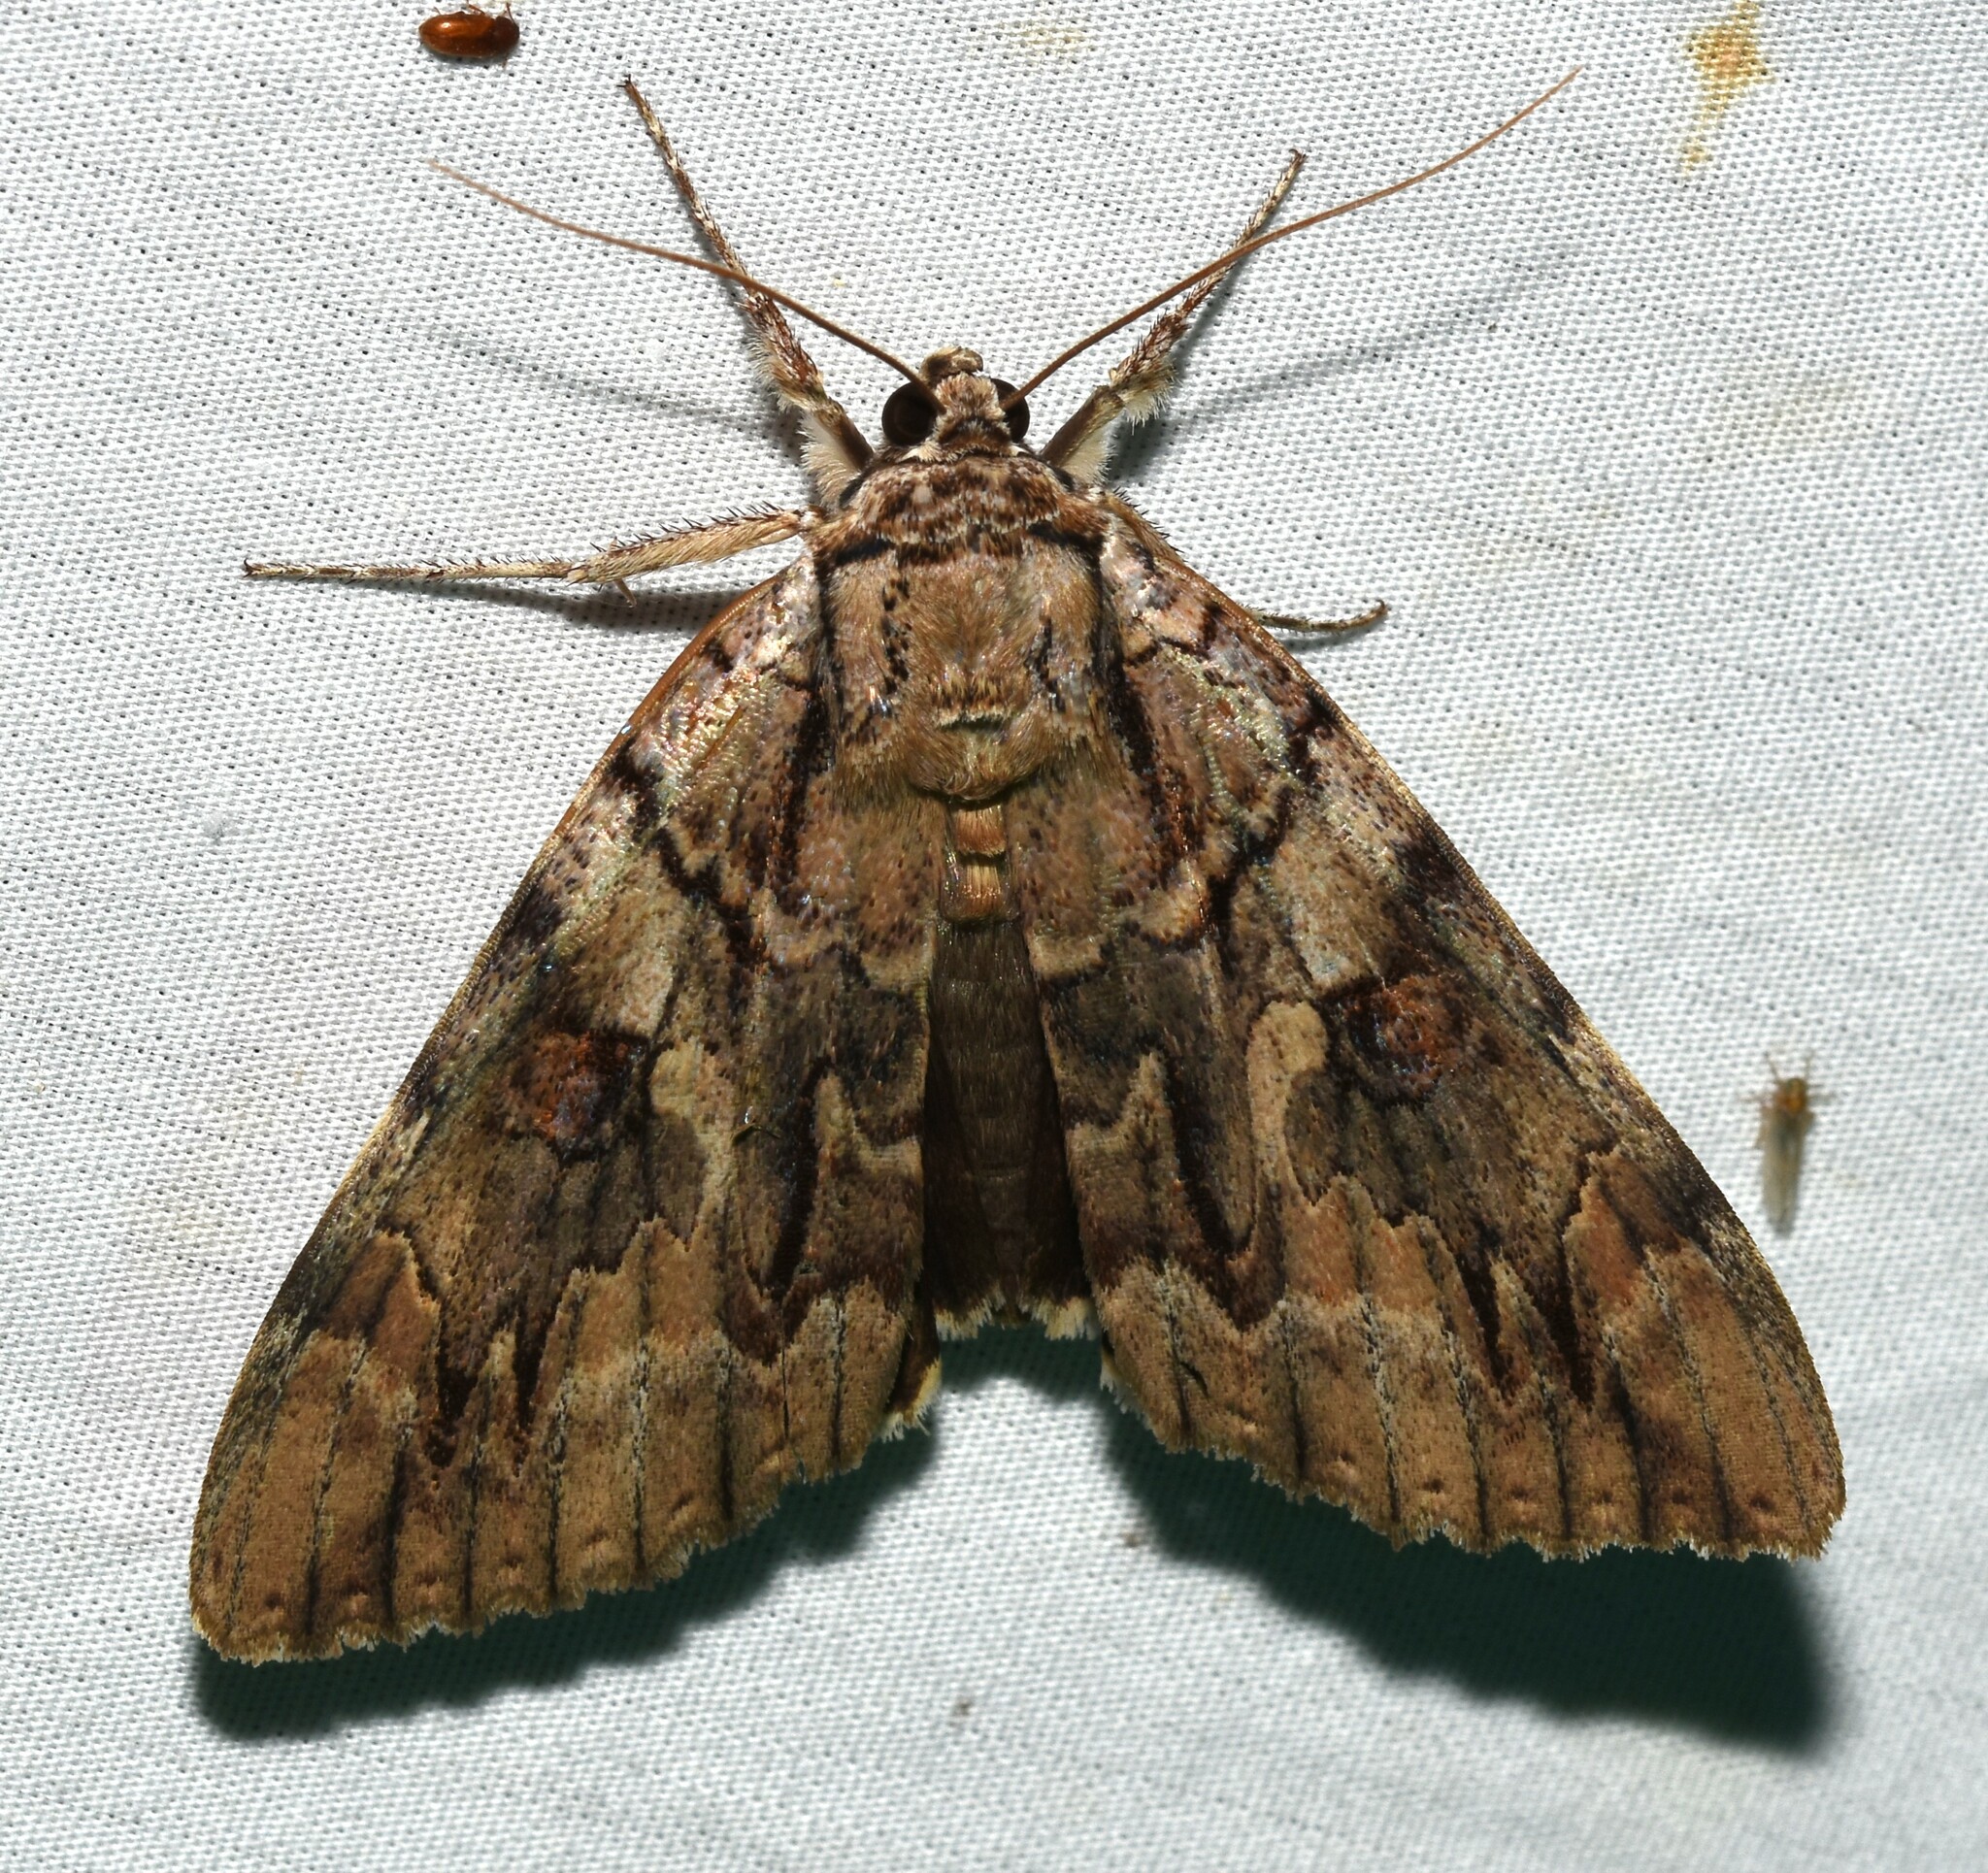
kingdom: Animalia
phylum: Arthropoda
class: Insecta
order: Lepidoptera
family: Erebidae
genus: Catocala
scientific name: Catocala luctuosa
